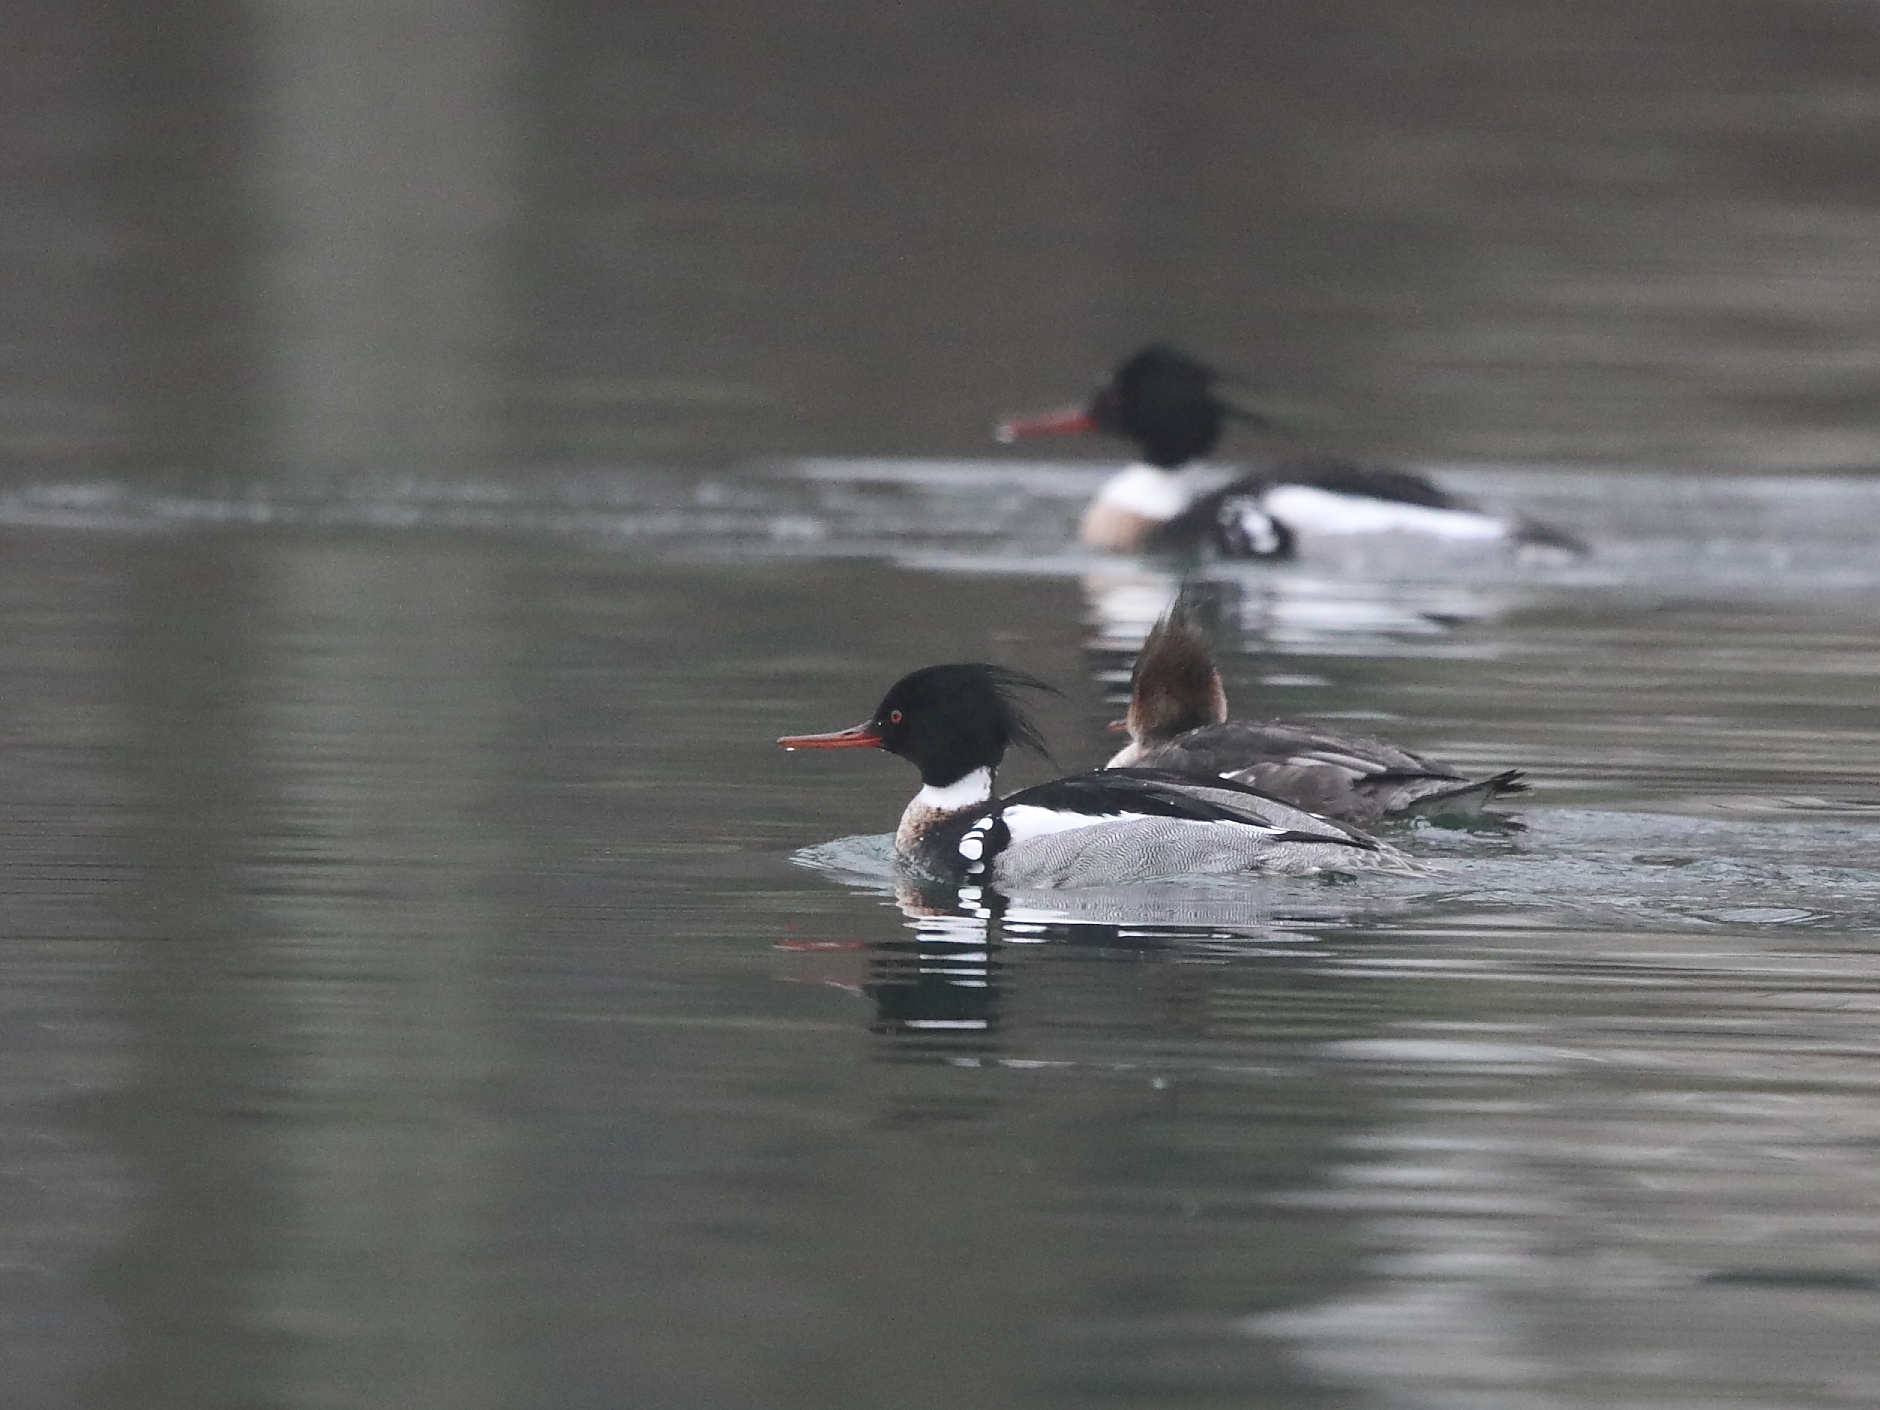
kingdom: Animalia
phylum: Chordata
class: Aves
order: Anseriformes
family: Anatidae
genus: Mergus
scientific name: Mergus serrator
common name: Red-breasted merganser
